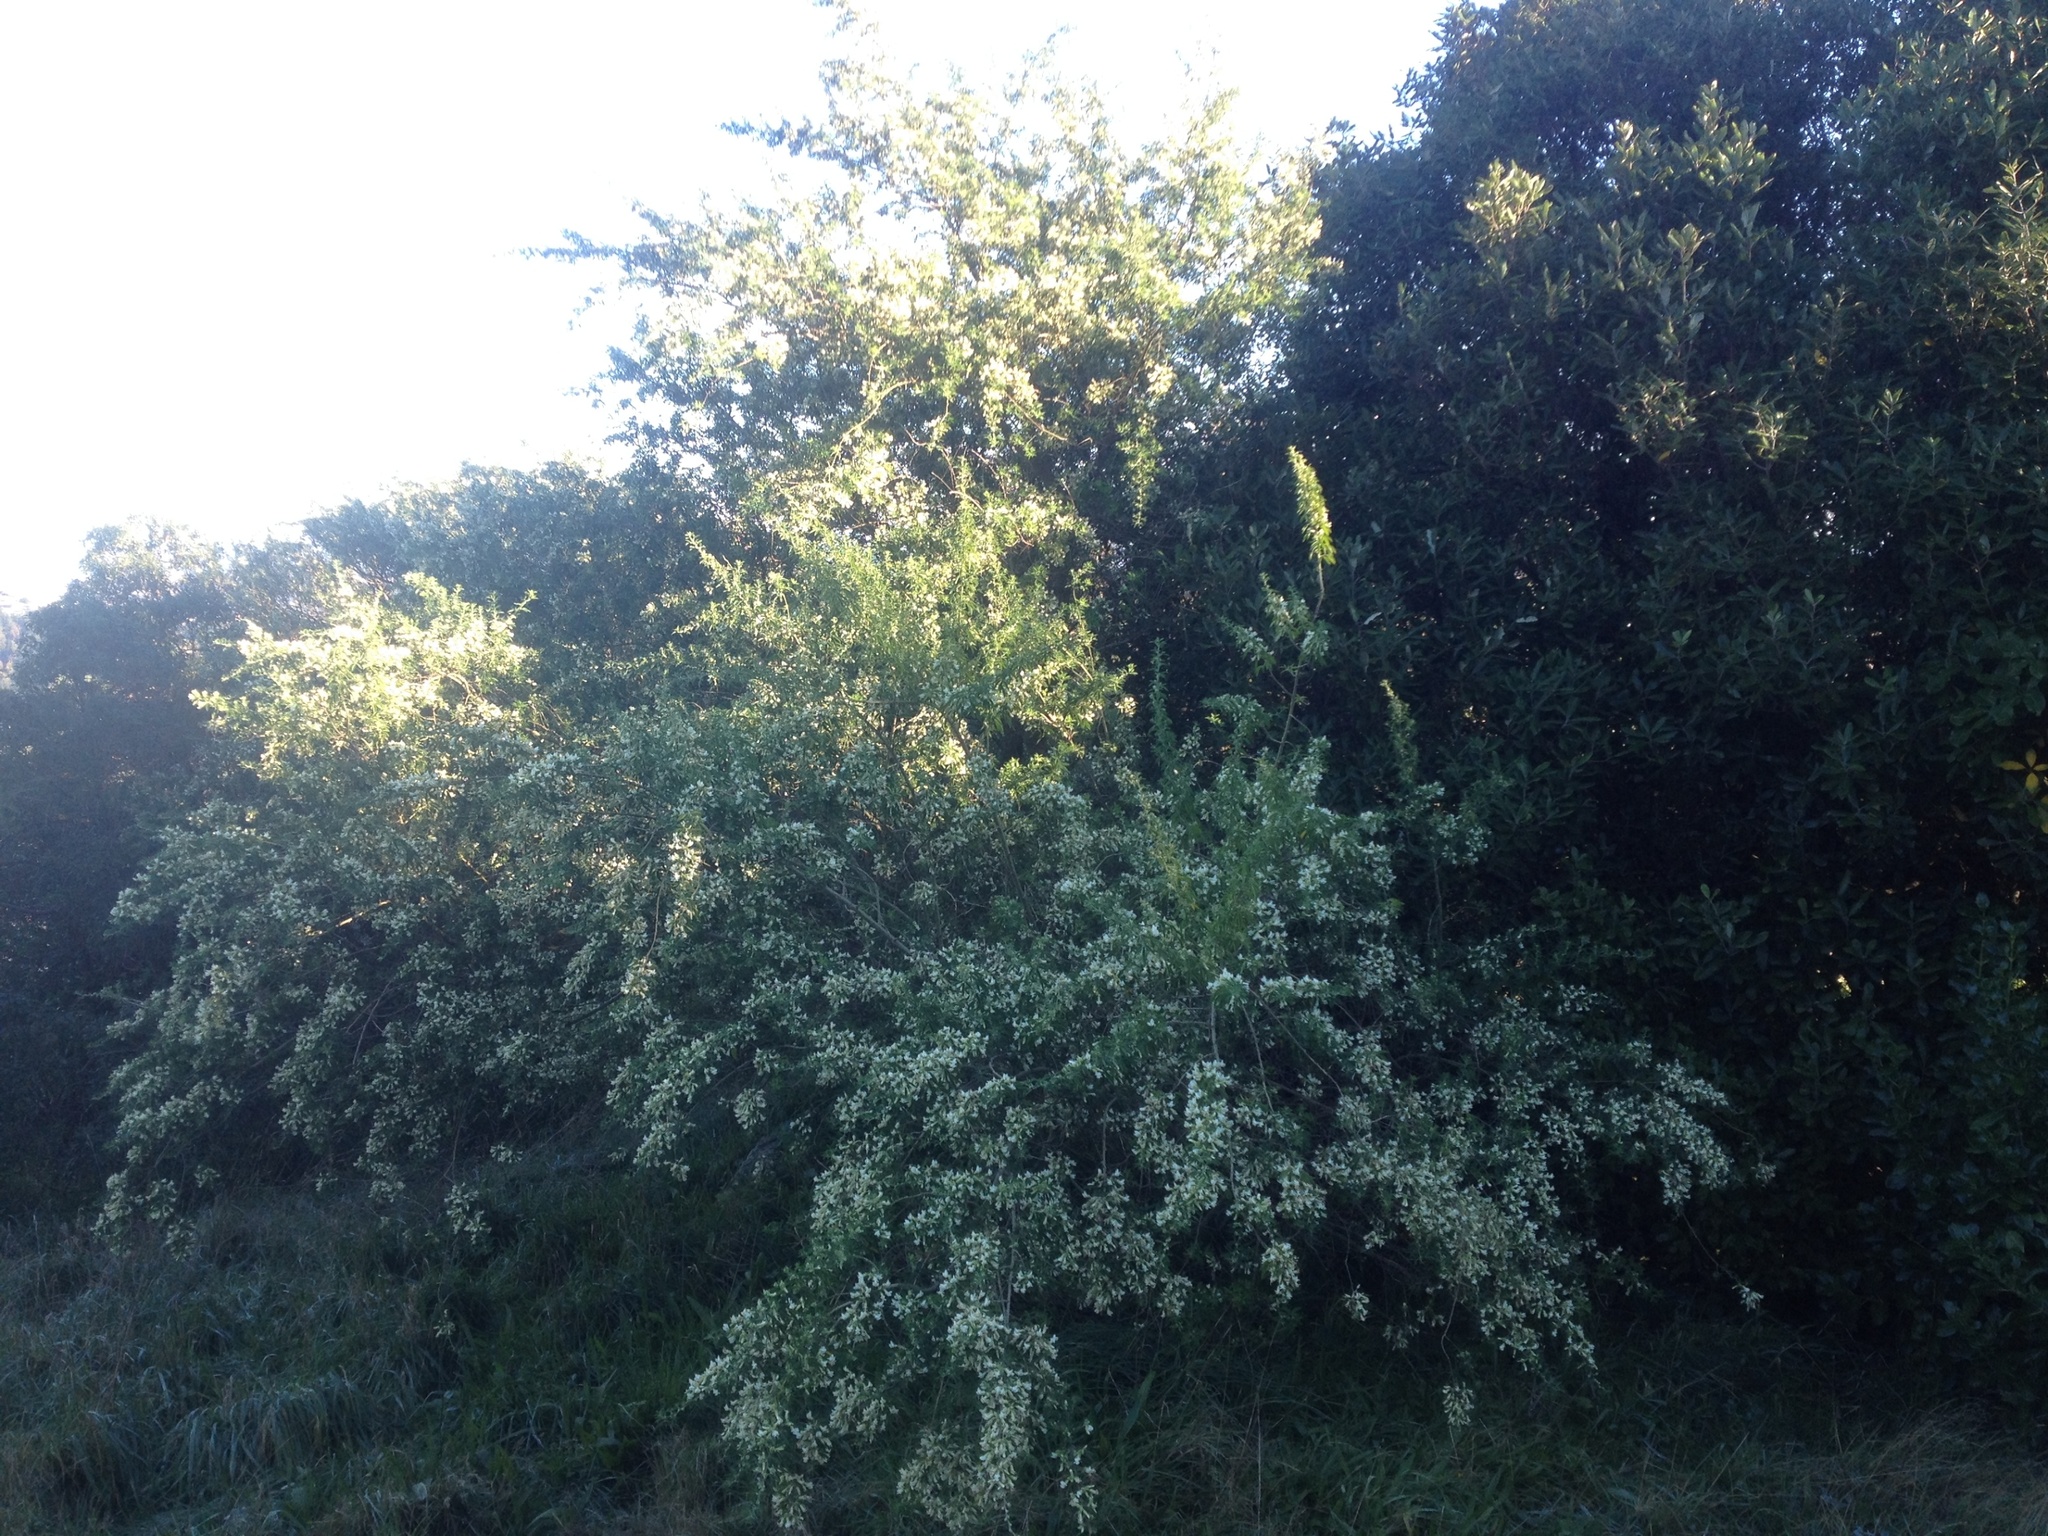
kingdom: Plantae
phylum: Tracheophyta
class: Magnoliopsida
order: Fabales
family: Fabaceae
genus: Chamaecytisus
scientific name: Chamaecytisus prolifer
